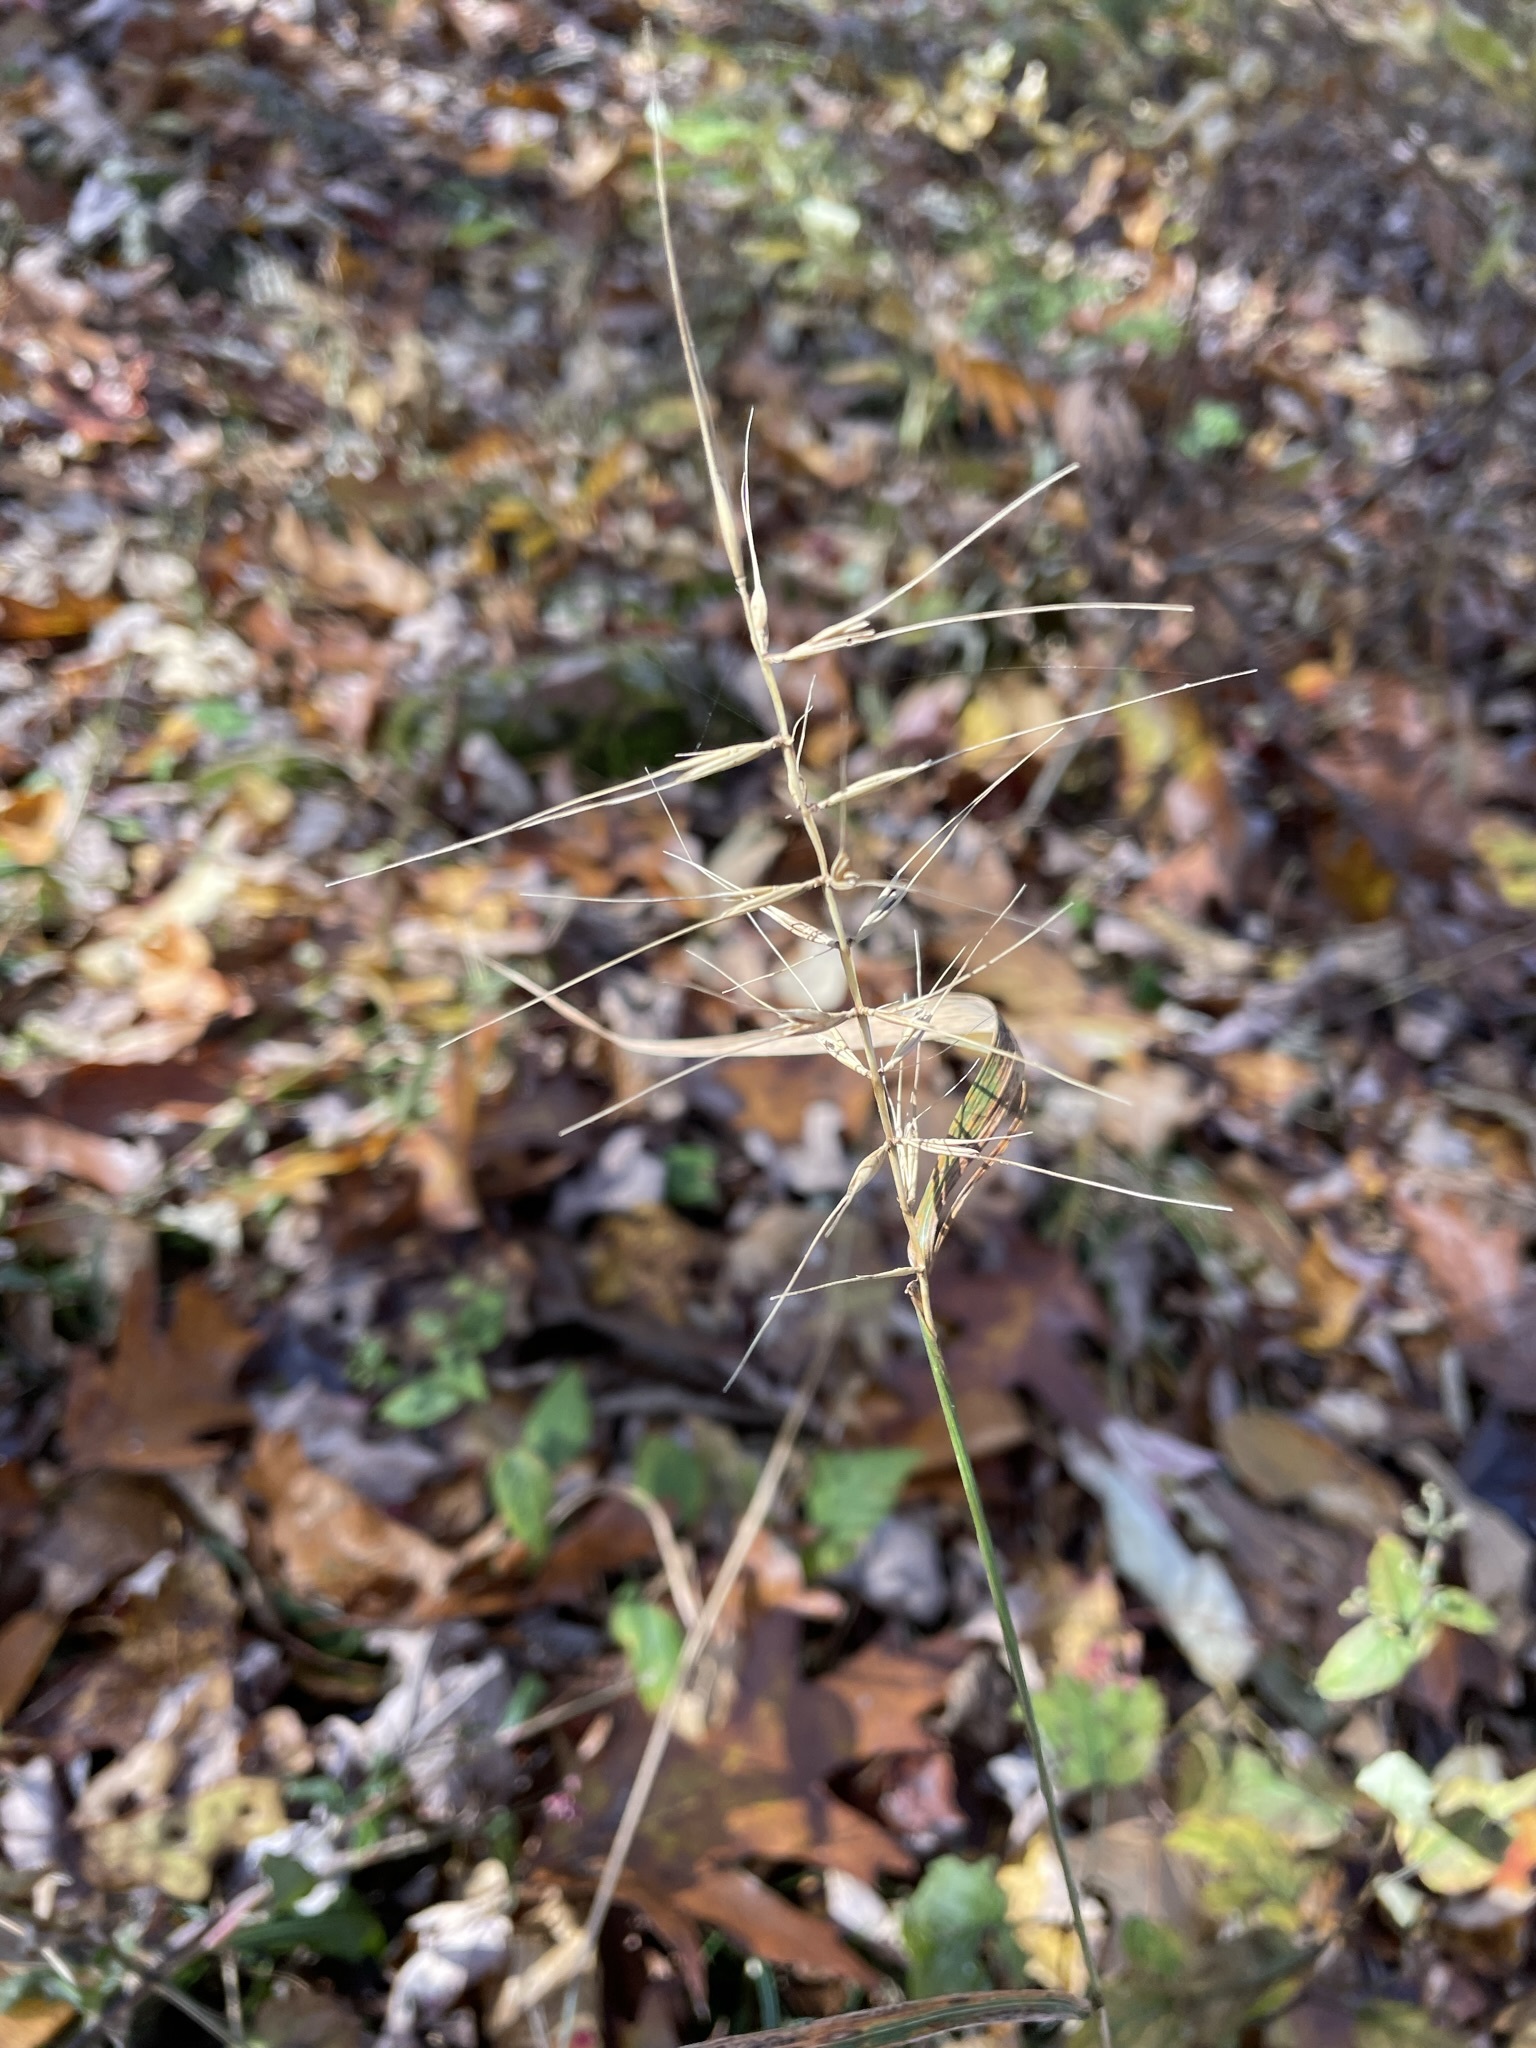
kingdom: Plantae
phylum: Tracheophyta
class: Liliopsida
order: Poales
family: Poaceae
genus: Elymus
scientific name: Elymus hystrix
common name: Bottlebrush grass
